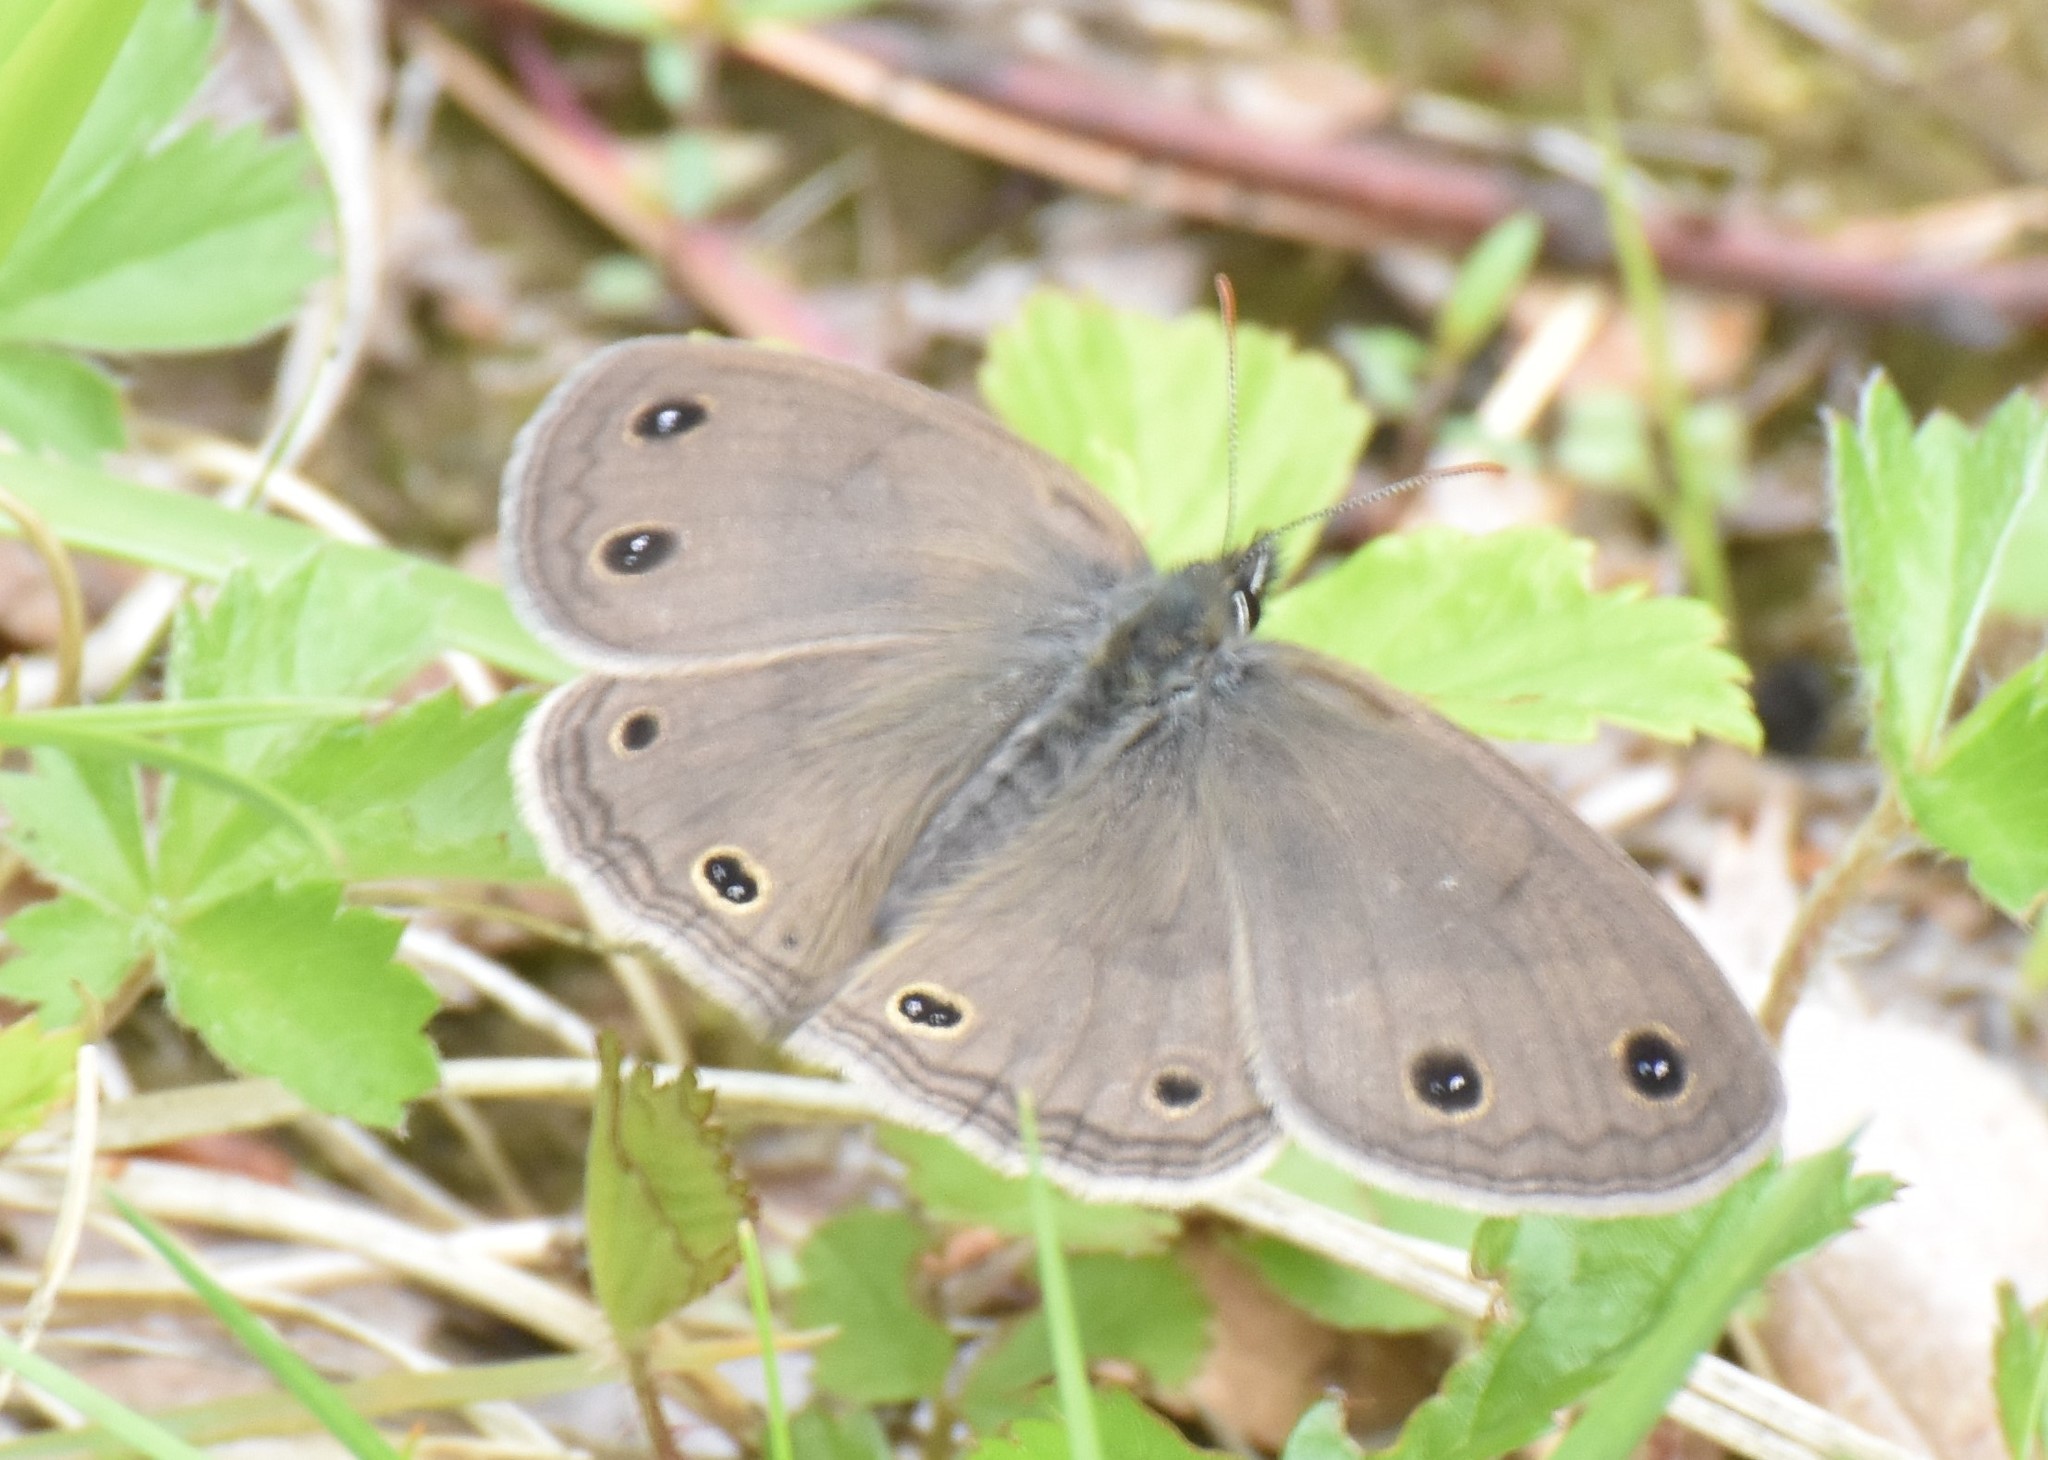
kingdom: Animalia
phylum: Arthropoda
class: Insecta
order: Lepidoptera
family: Nymphalidae
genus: Euptychia
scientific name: Euptychia cymela
